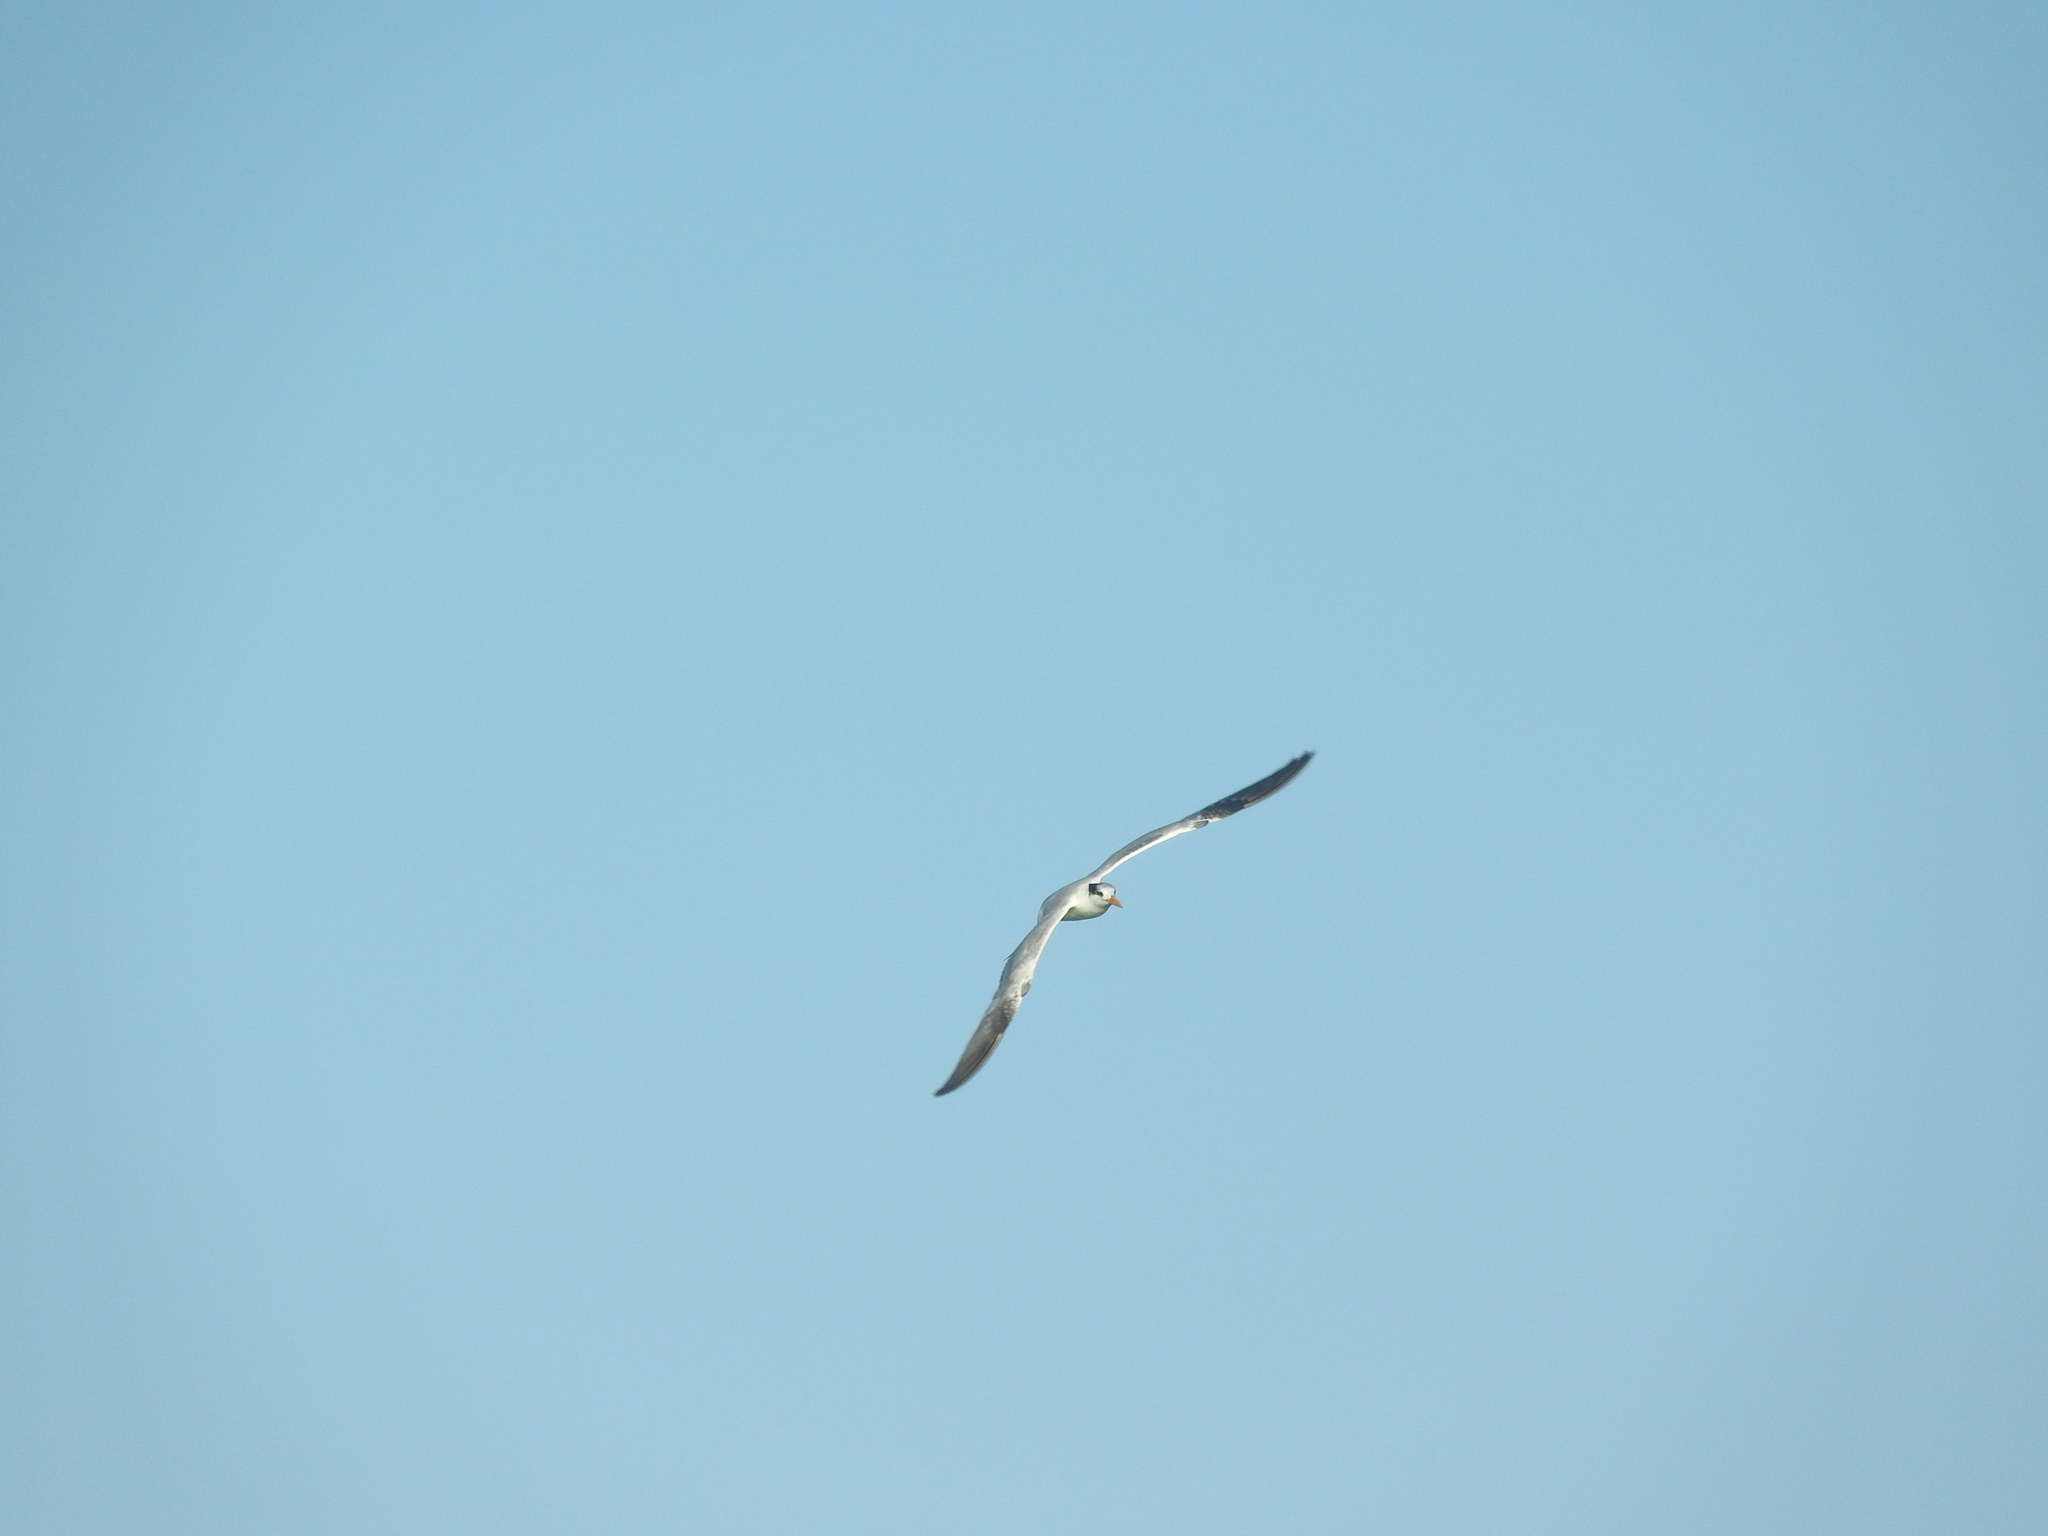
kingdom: Animalia
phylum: Chordata
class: Aves
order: Charadriiformes
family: Laridae
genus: Thalasseus
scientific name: Thalasseus maximus
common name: Royal tern
